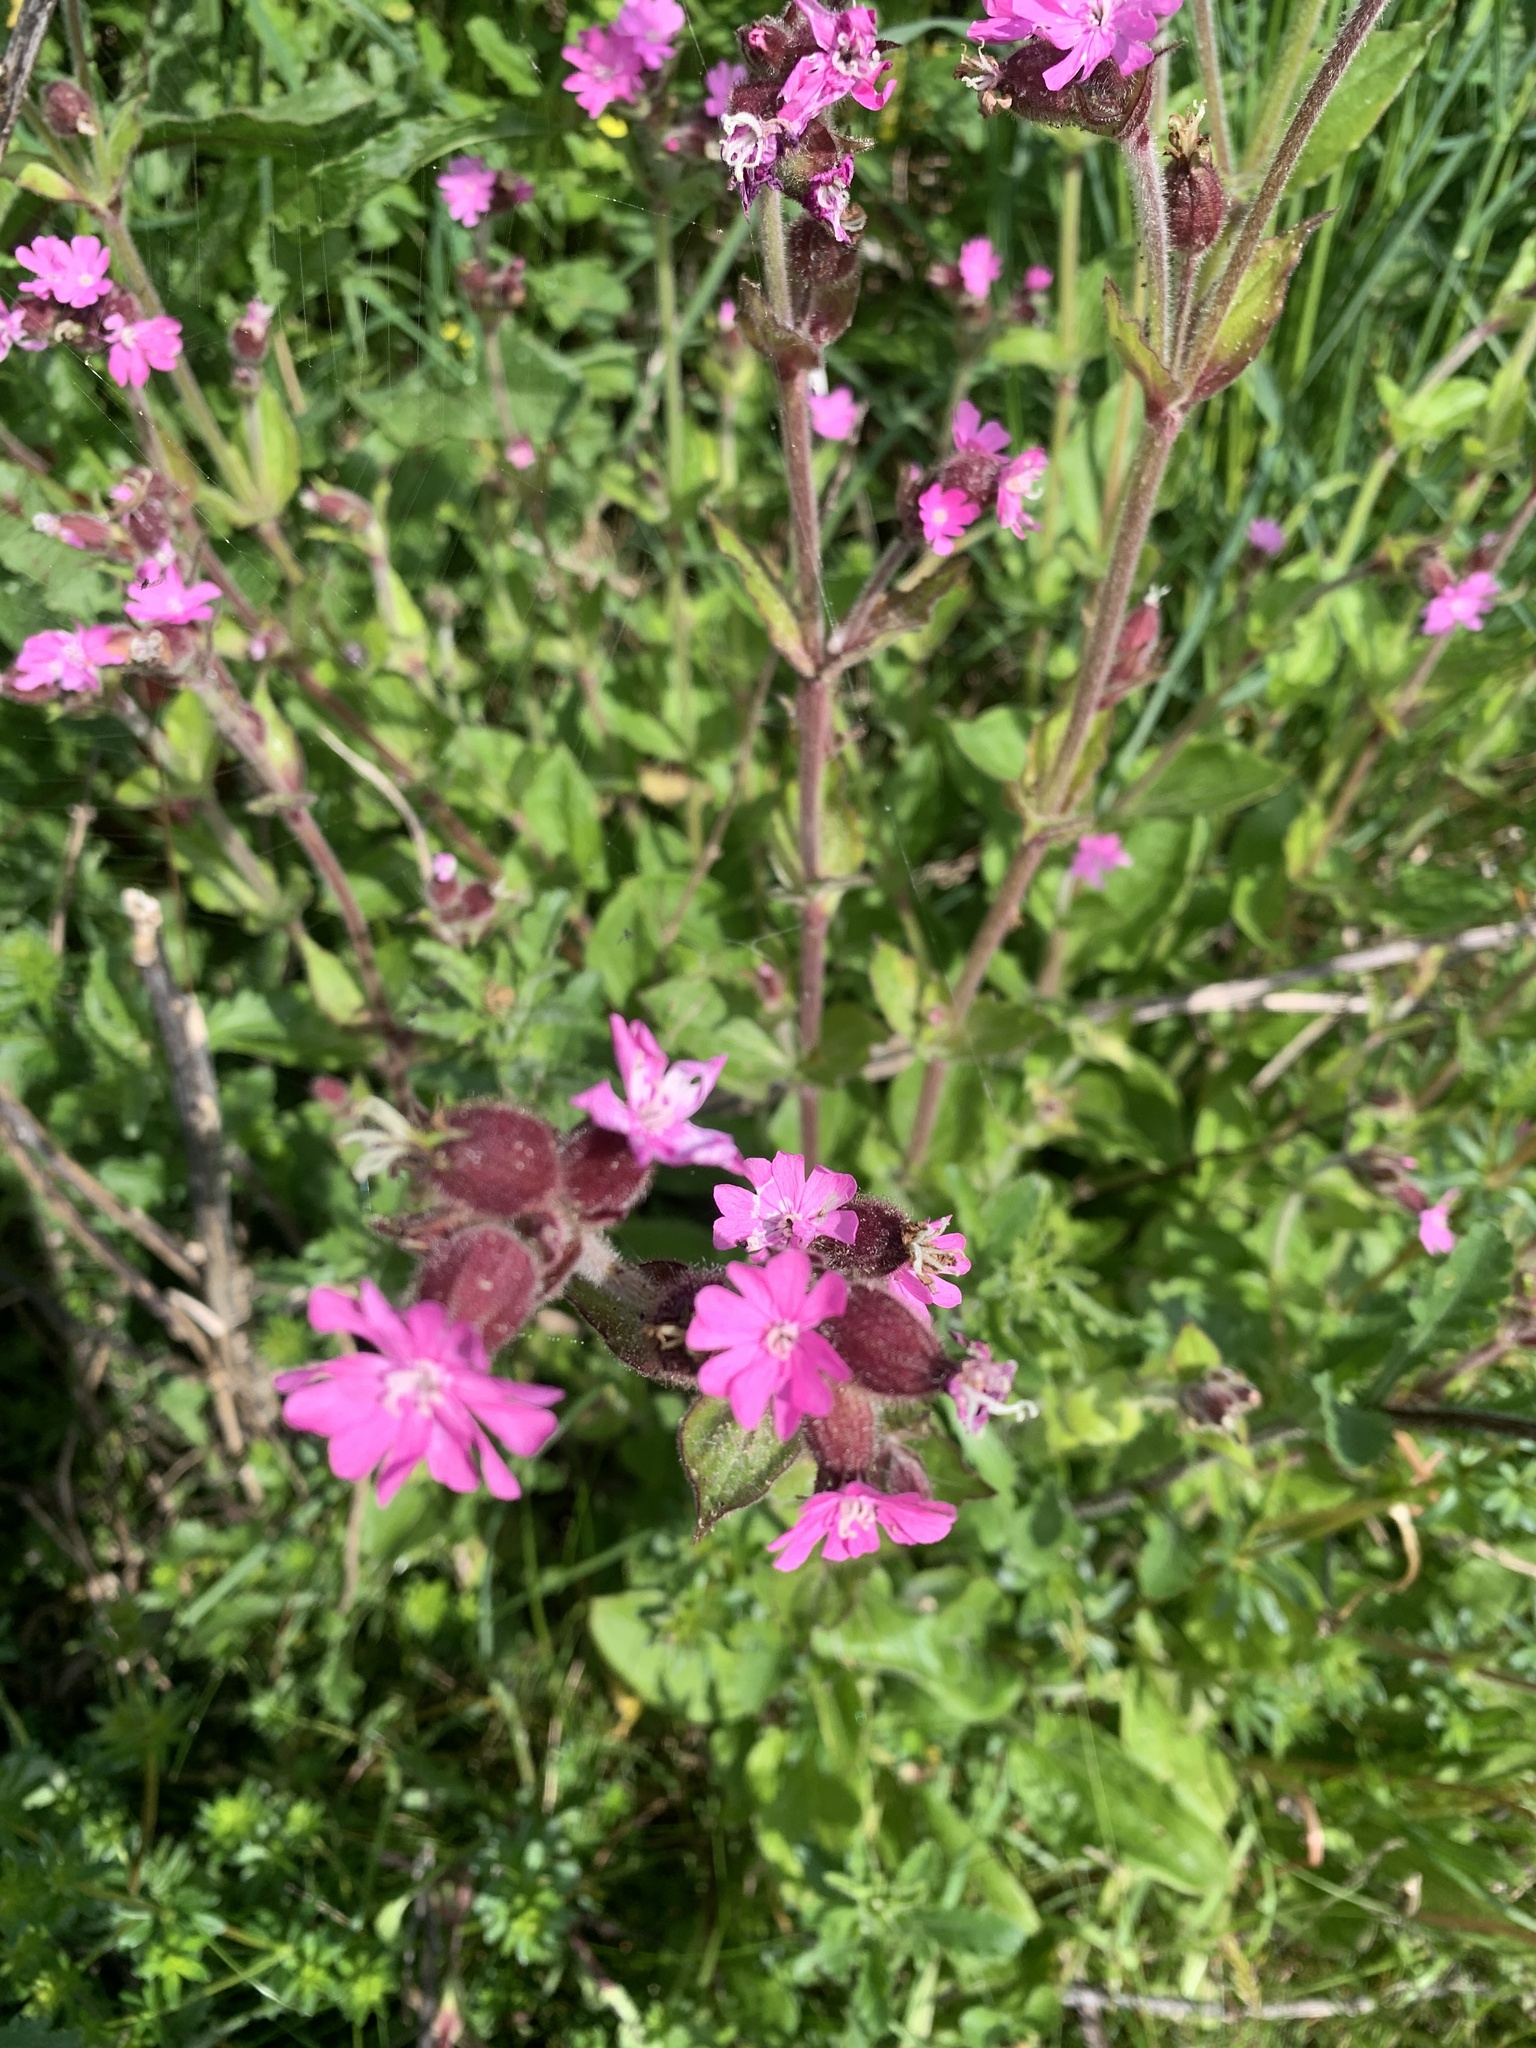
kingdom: Plantae
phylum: Tracheophyta
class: Magnoliopsida
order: Caryophyllales
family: Caryophyllaceae
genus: Silene
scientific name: Silene dioica
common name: Red campion
